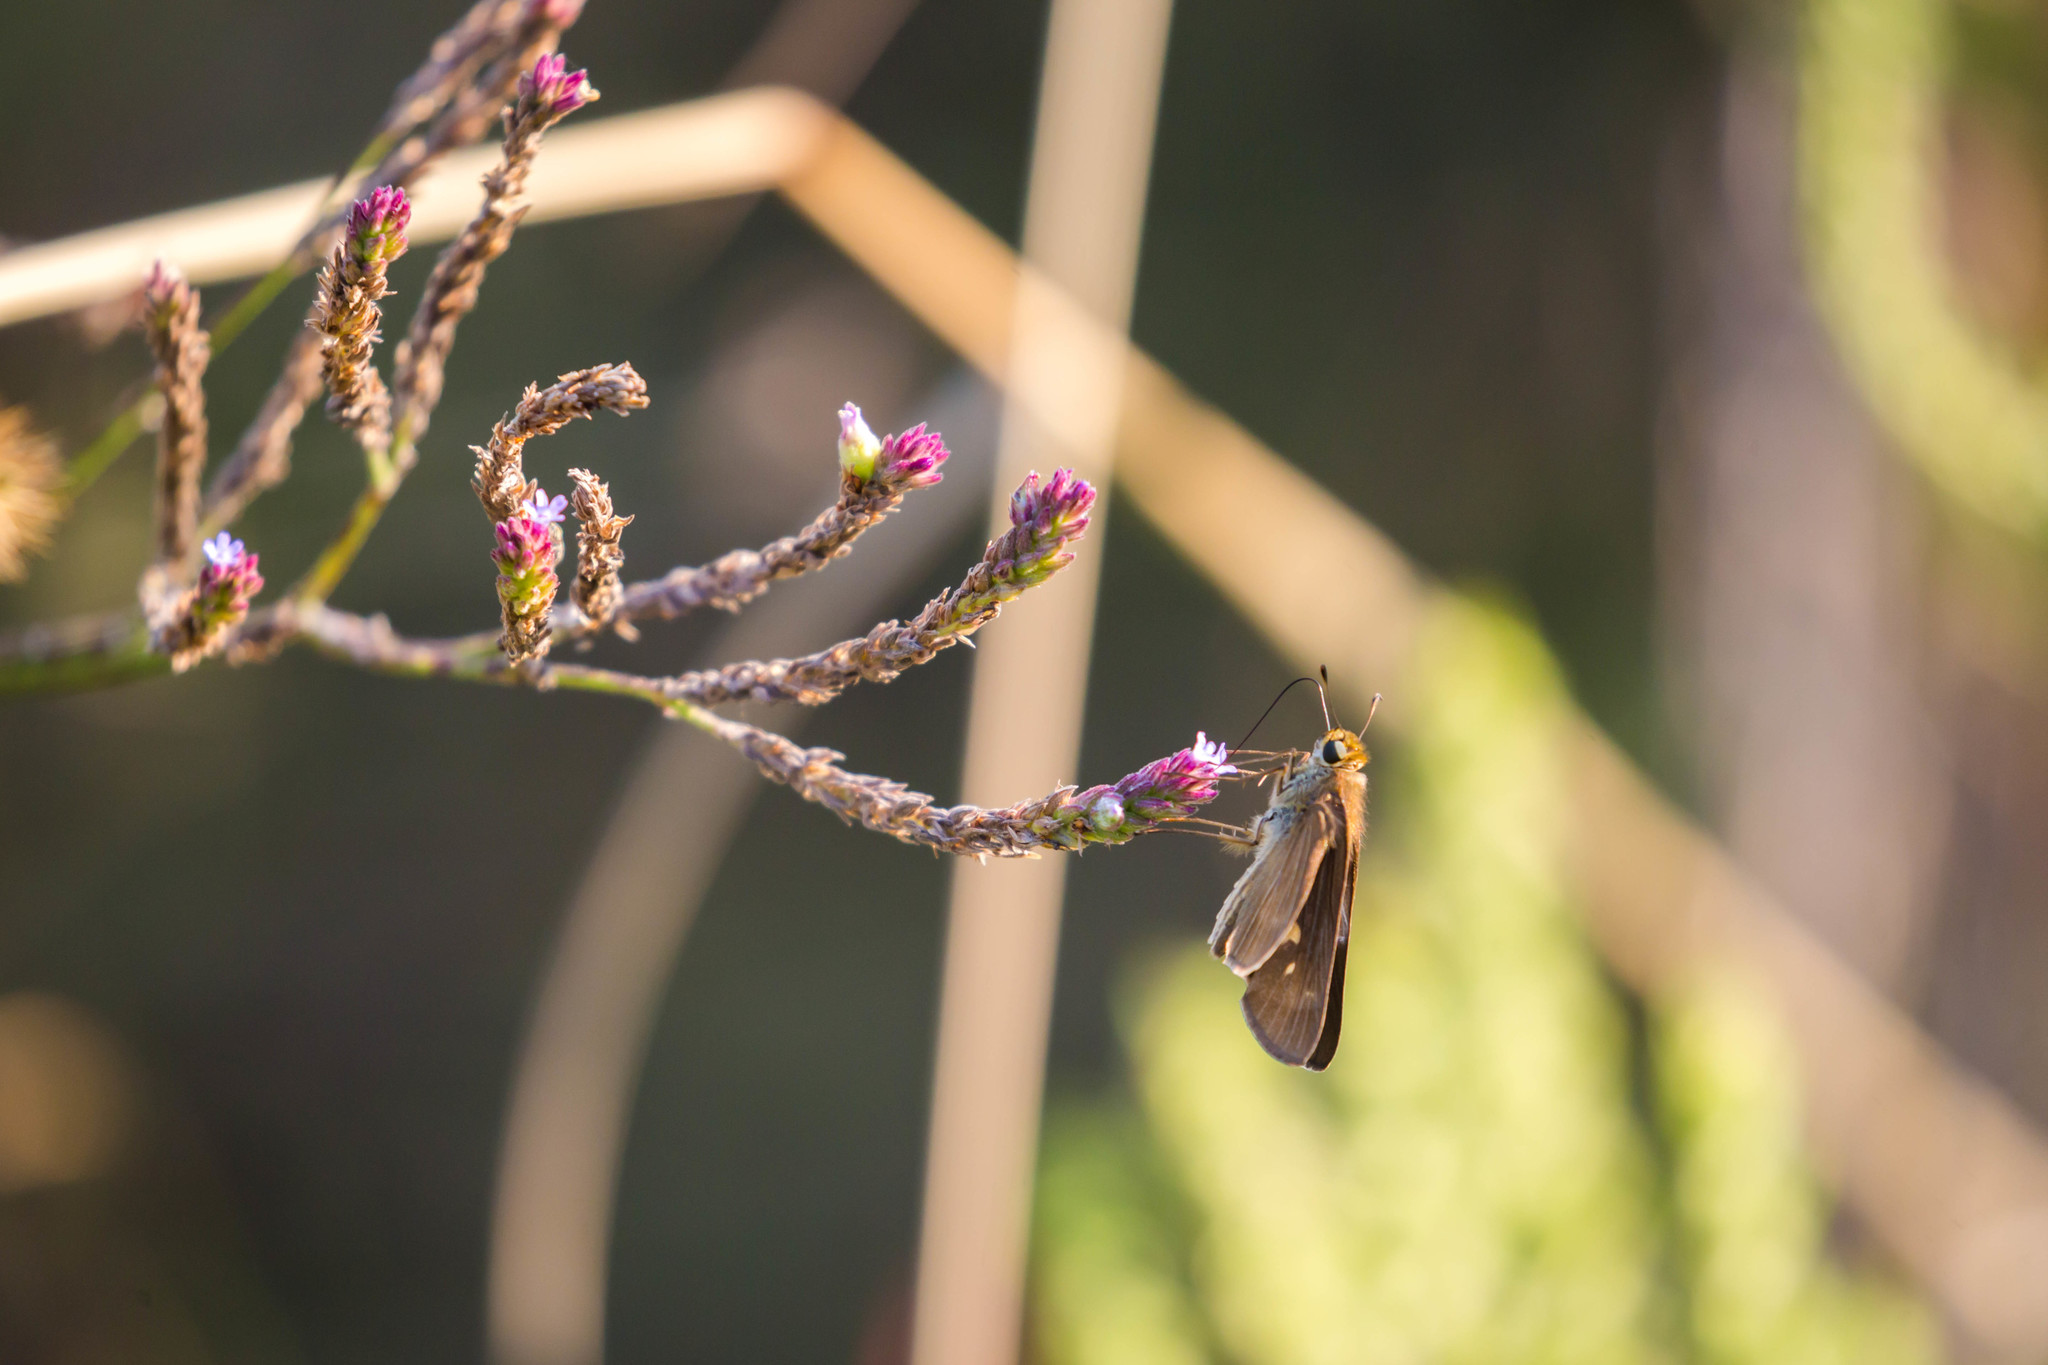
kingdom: Animalia
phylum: Arthropoda
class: Insecta
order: Lepidoptera
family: Hesperiidae
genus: Panoquina
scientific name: Panoquina ocola
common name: Ocola skipper
